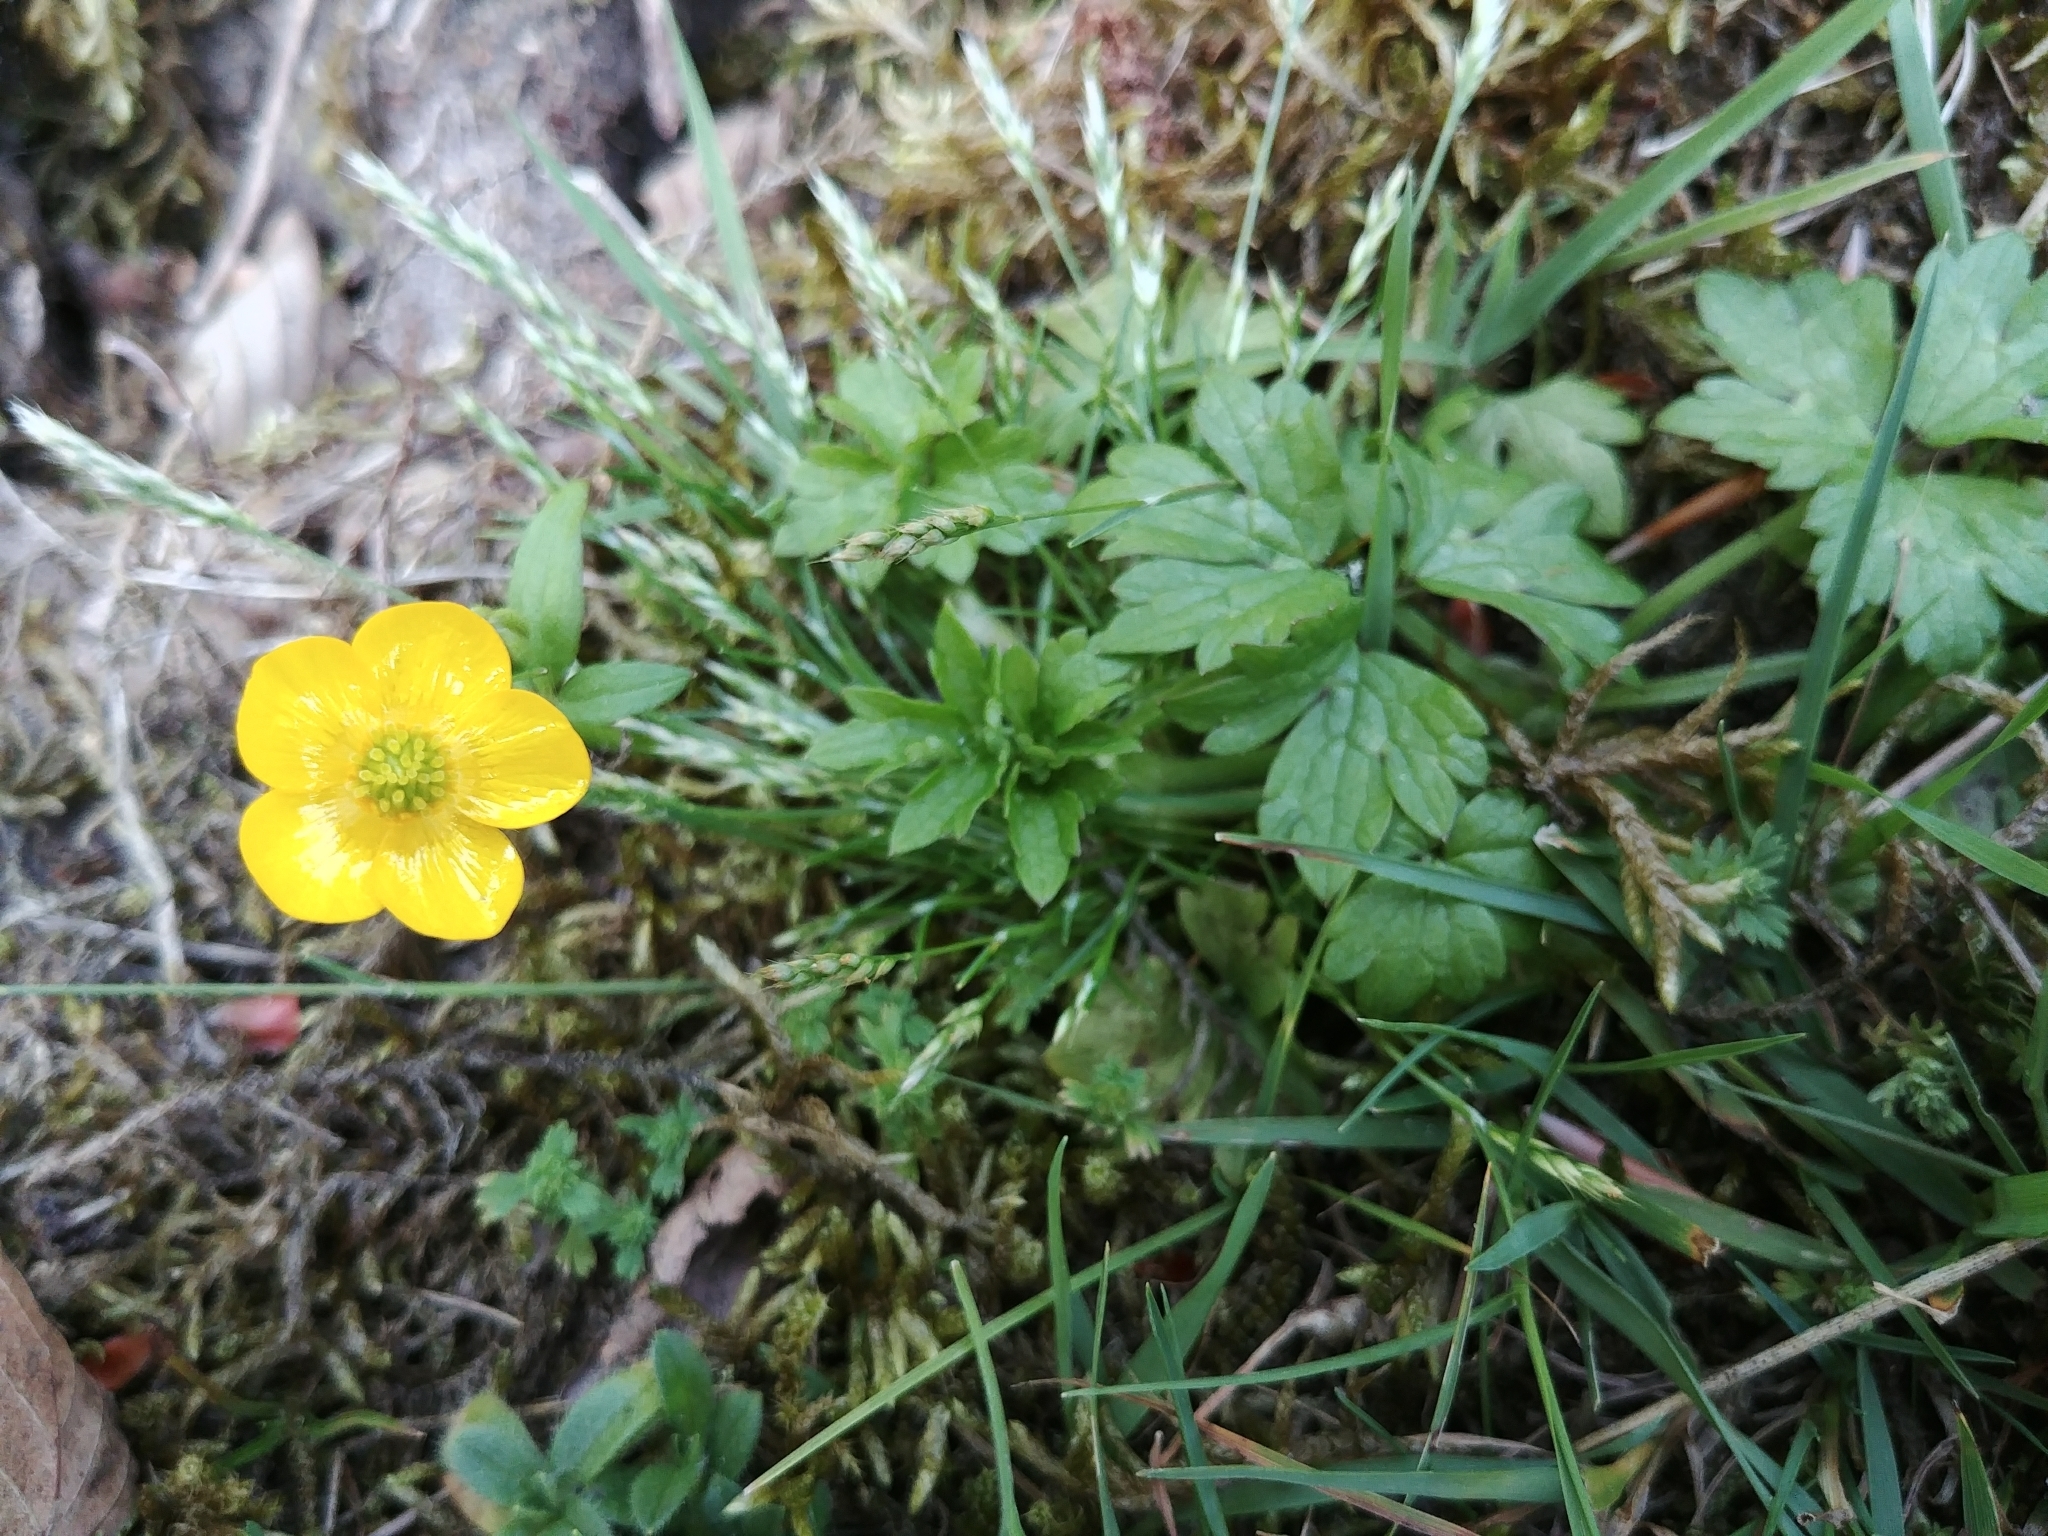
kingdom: Plantae
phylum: Tracheophyta
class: Magnoliopsida
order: Ranunculales
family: Ranunculaceae
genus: Ranunculus
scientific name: Ranunculus repens
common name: Creeping buttercup
